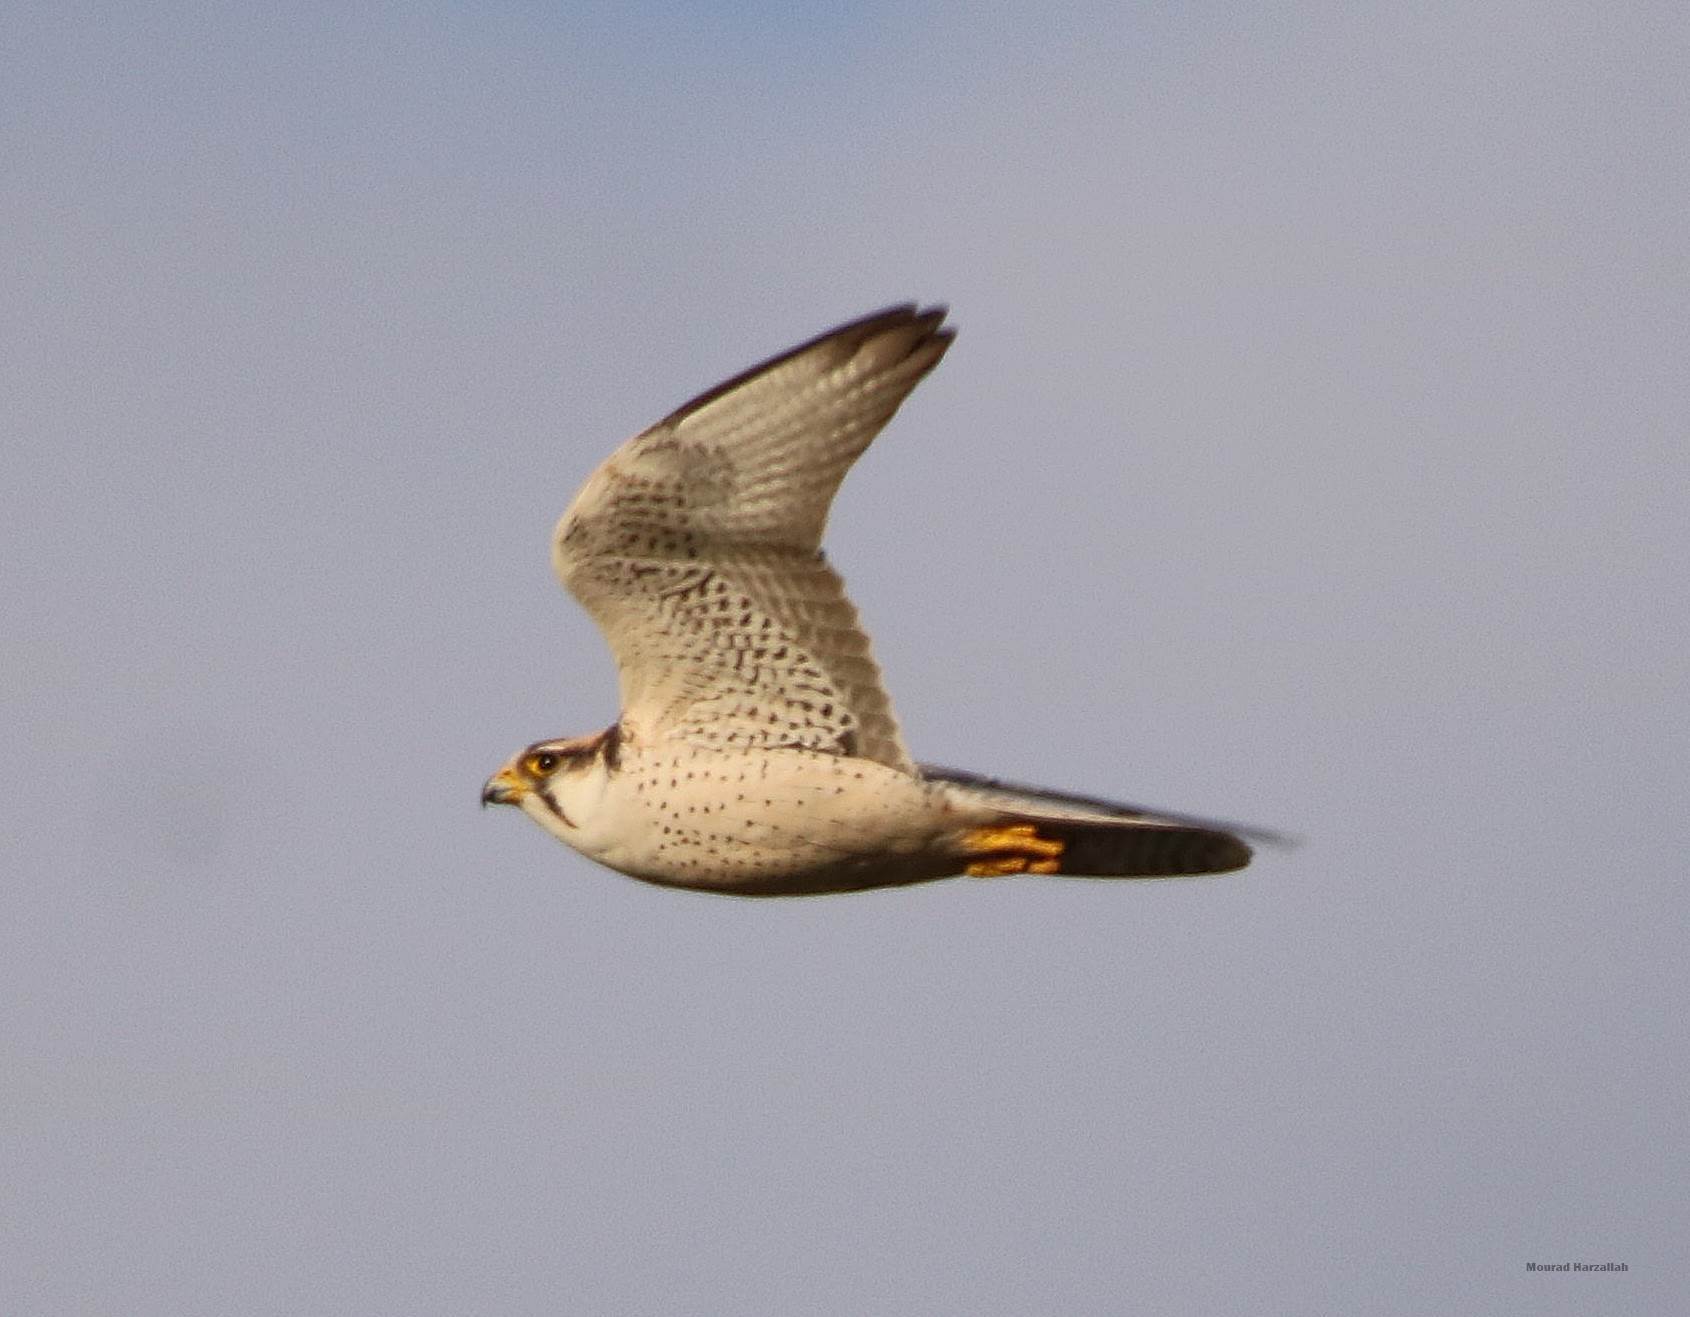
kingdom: Animalia
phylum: Chordata
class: Aves
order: Falconiformes
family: Falconidae
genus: Falco
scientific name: Falco biarmicus
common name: Lanner falcon
